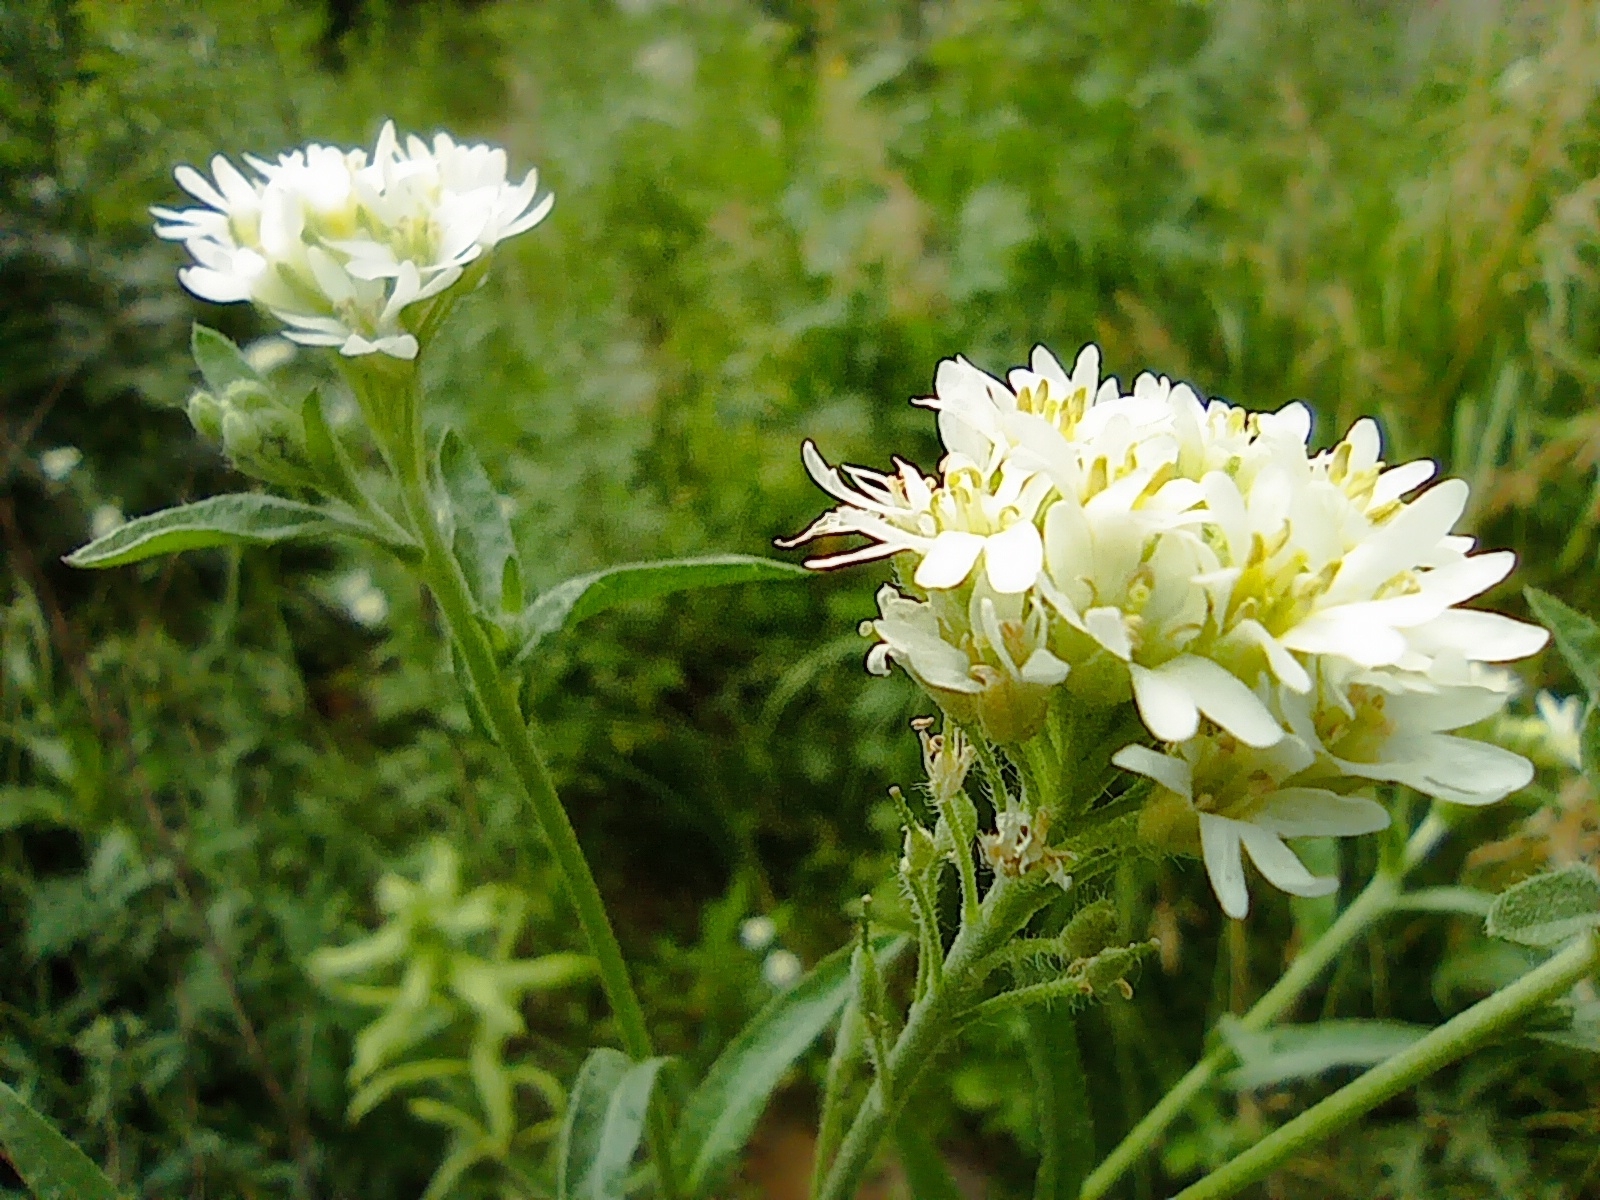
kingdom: Plantae
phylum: Tracheophyta
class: Magnoliopsida
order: Brassicales
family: Brassicaceae
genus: Berteroa
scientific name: Berteroa incana
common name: Hoary alison
